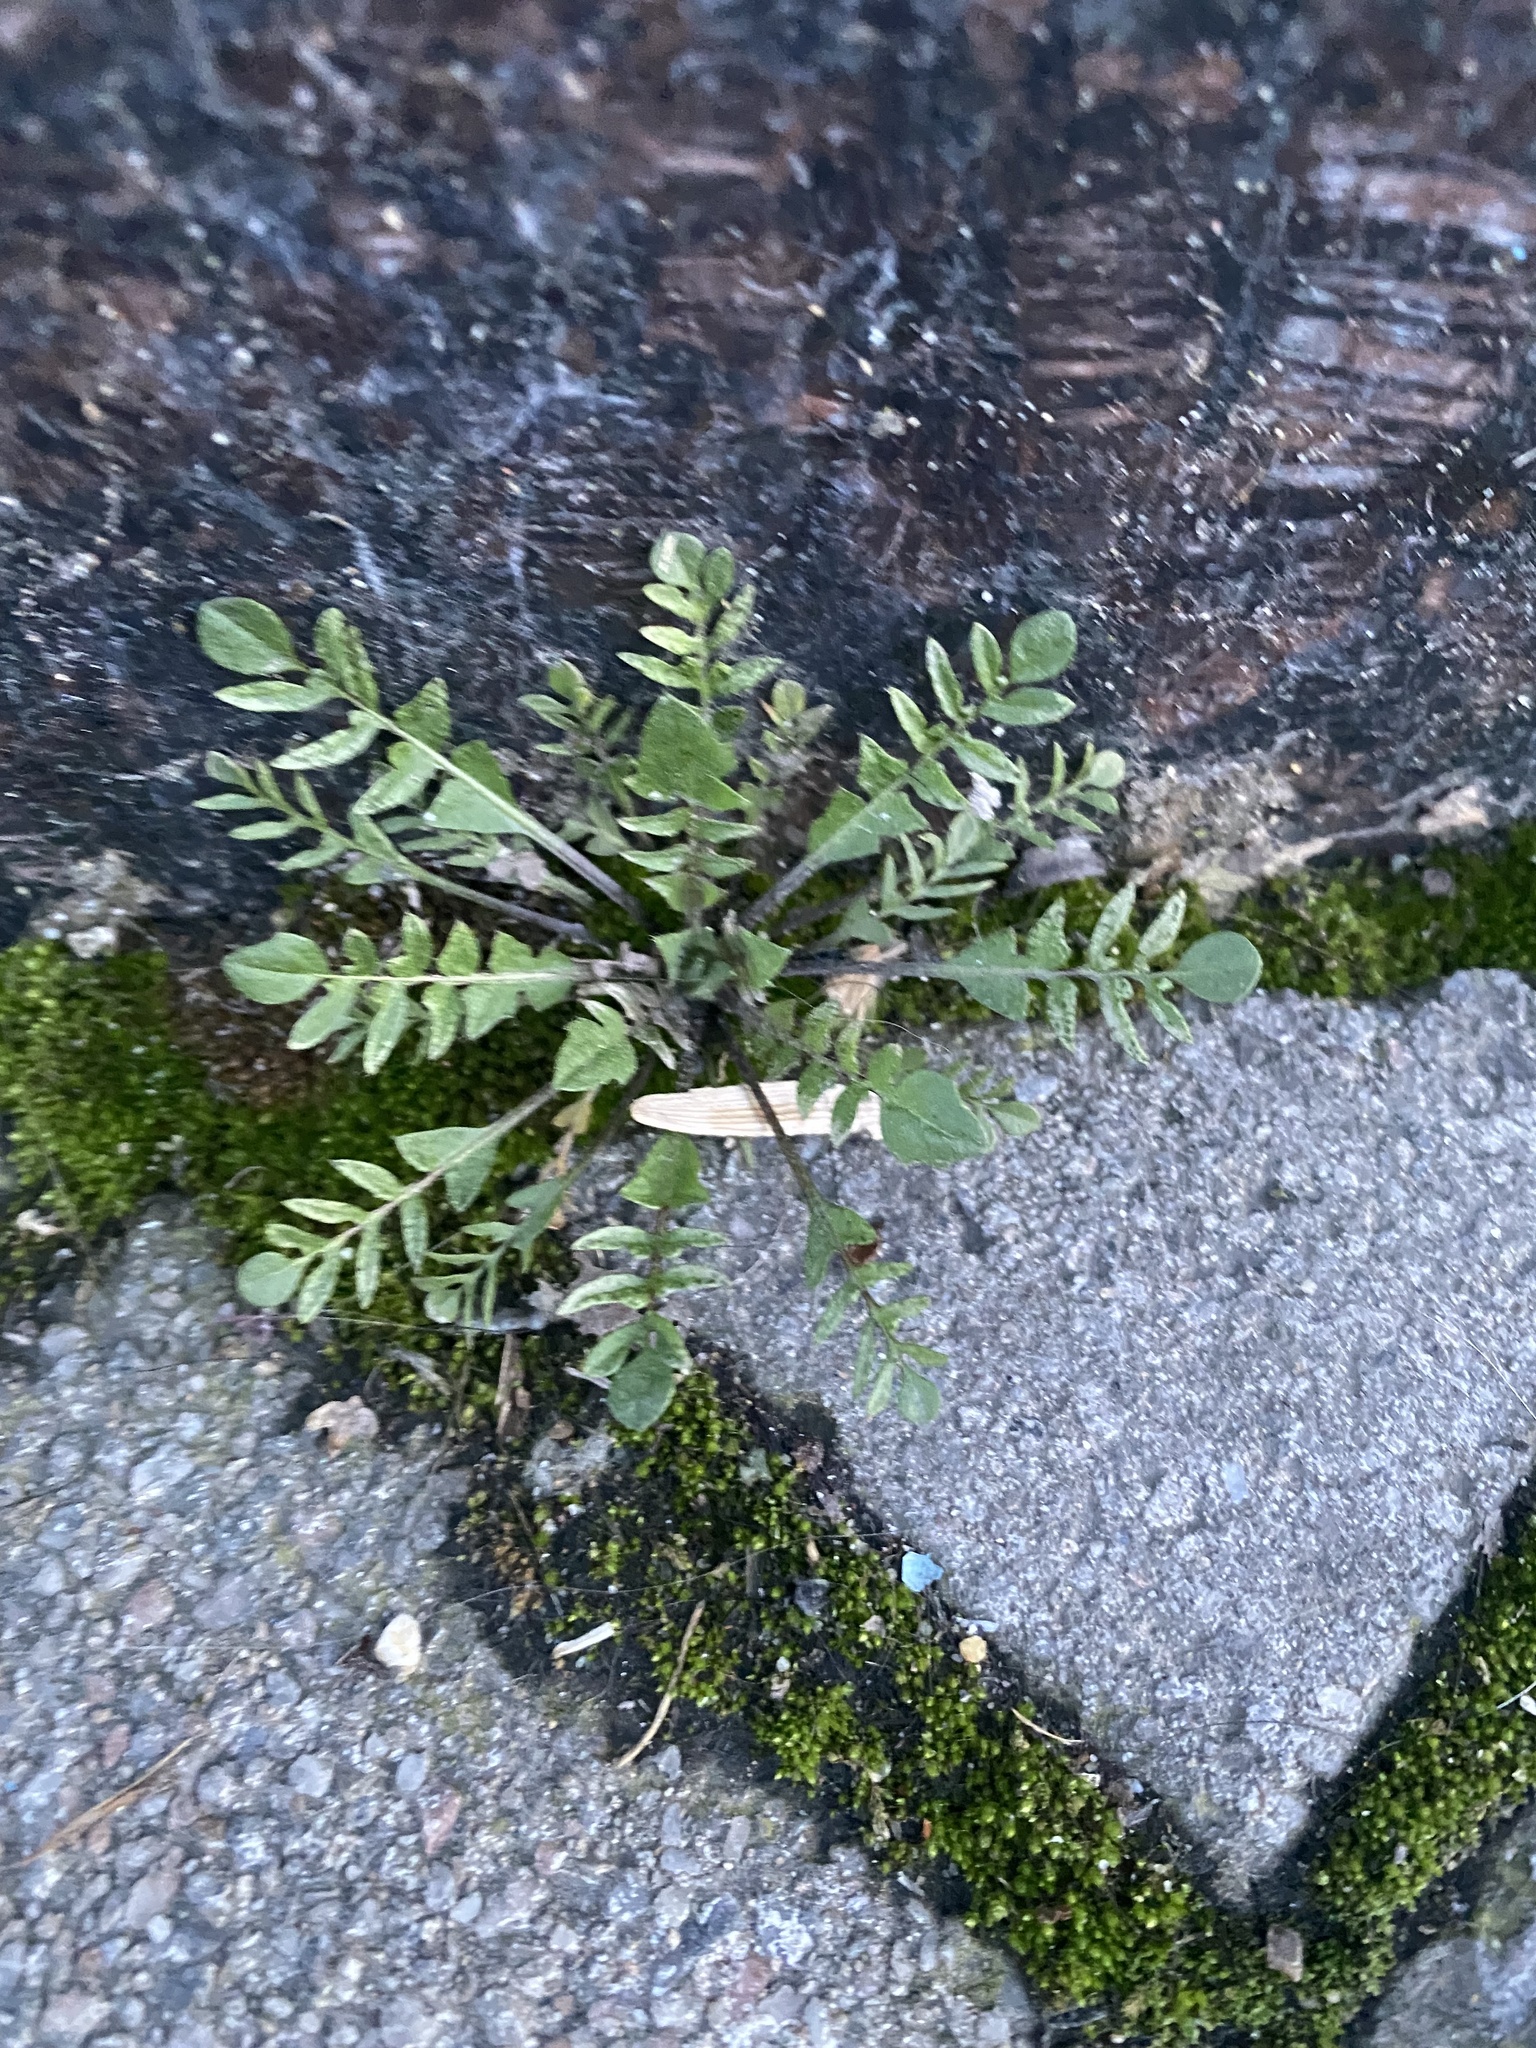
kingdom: Plantae
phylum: Tracheophyta
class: Magnoliopsida
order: Brassicales
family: Brassicaceae
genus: Capsella
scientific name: Capsella bursa-pastoris
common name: Shepherd's purse
